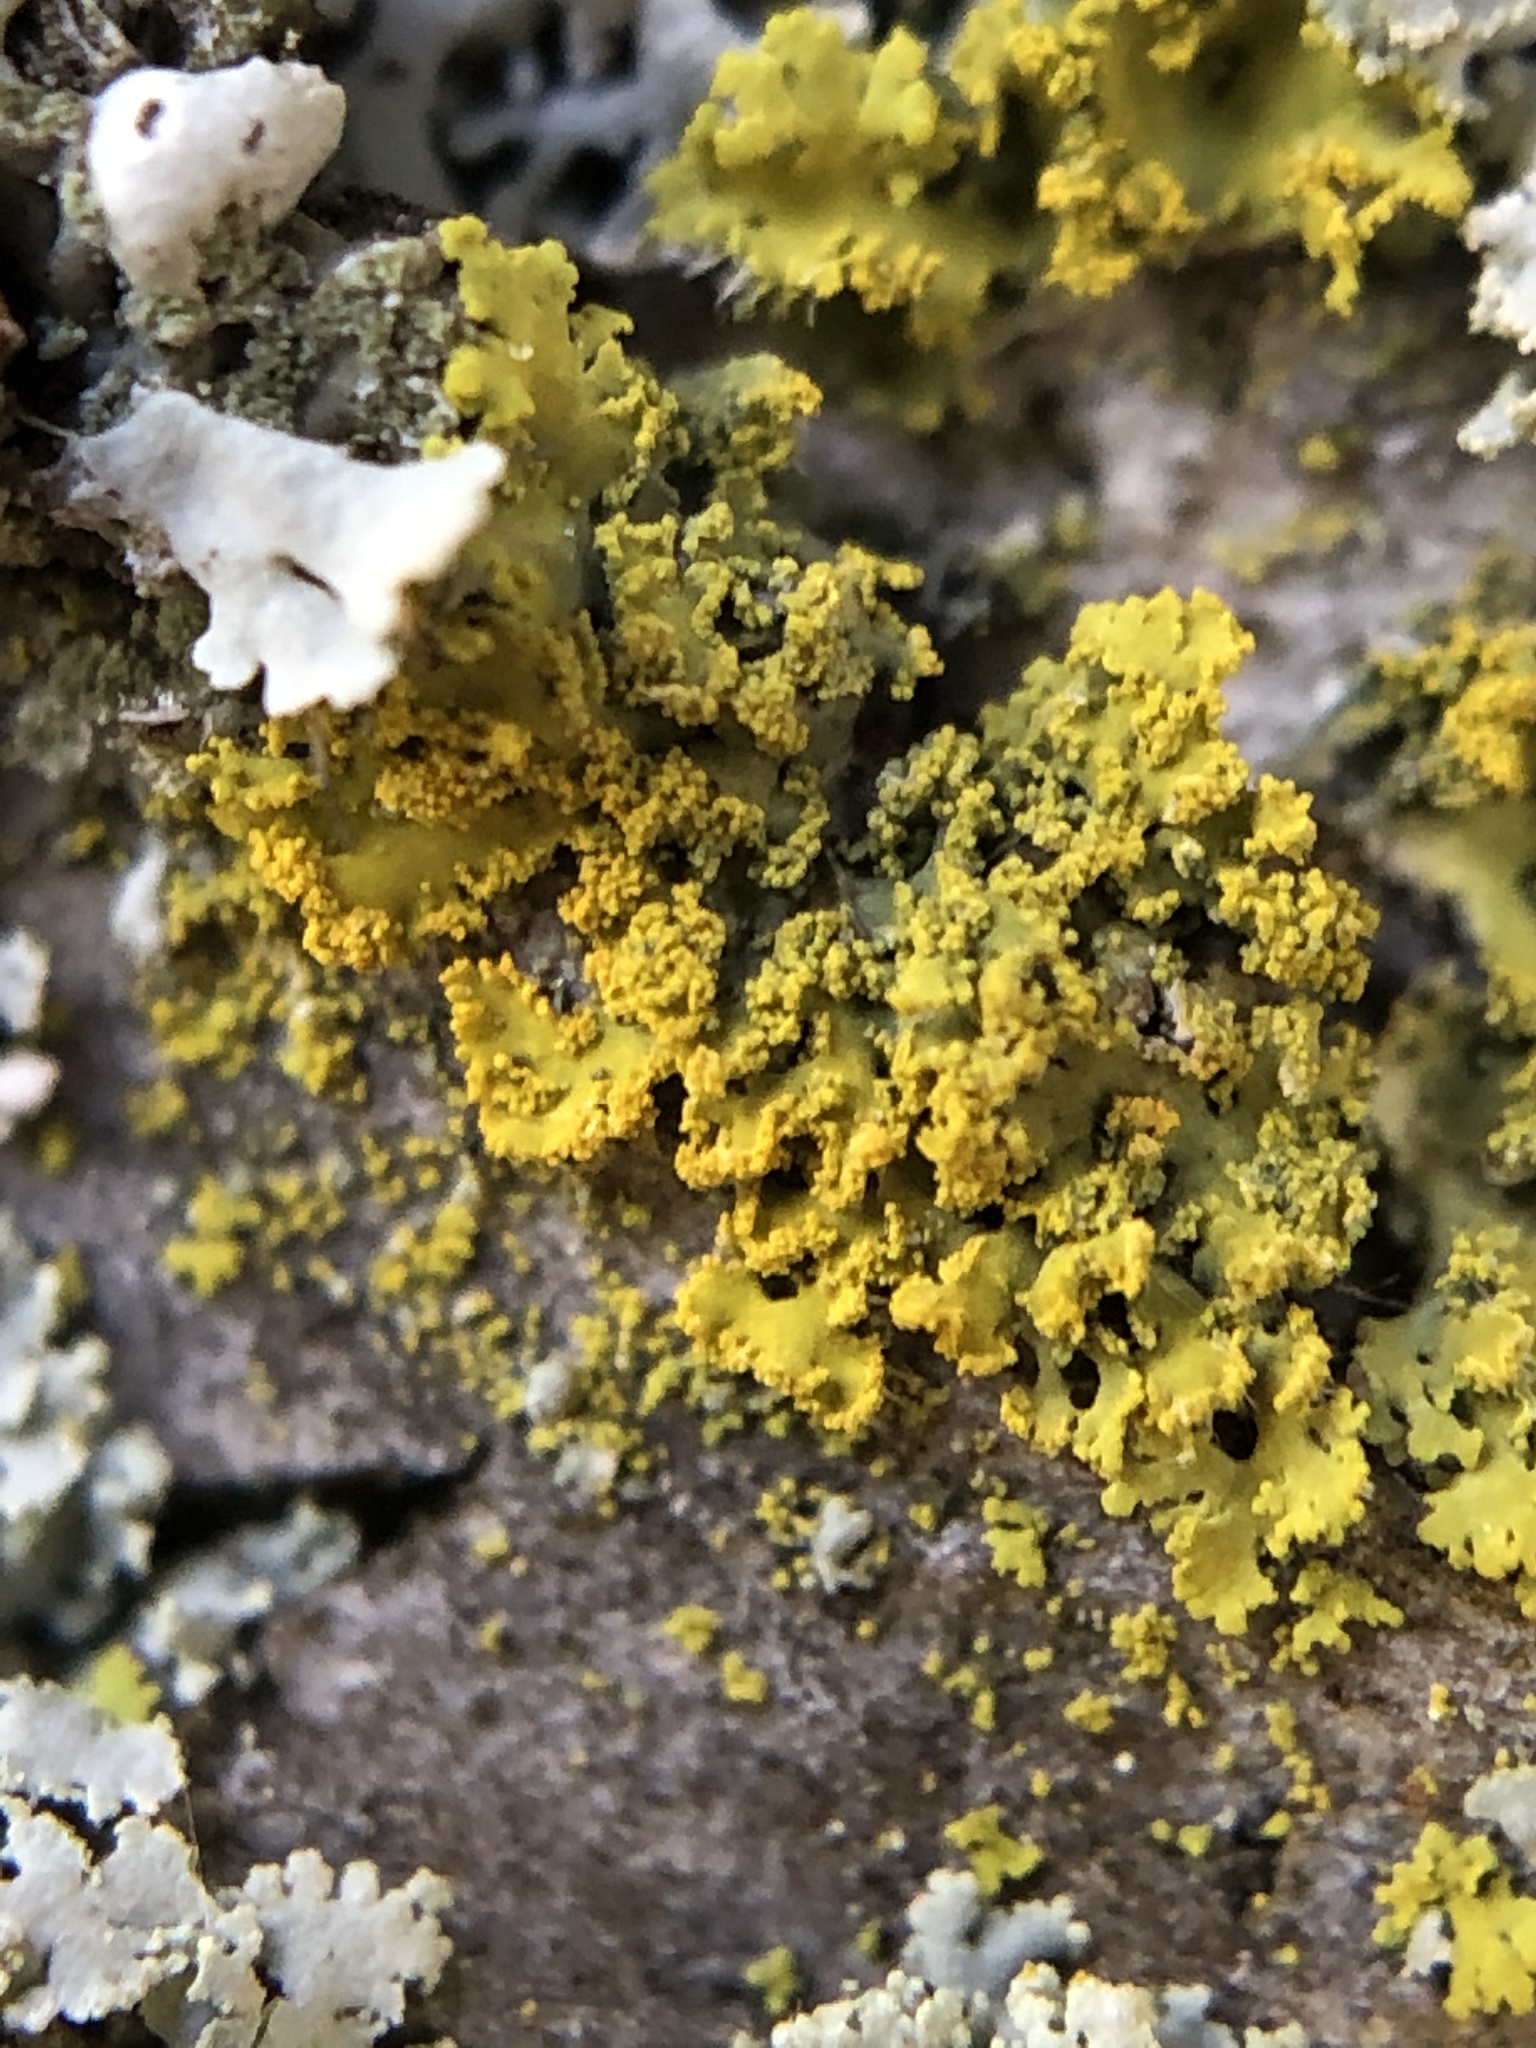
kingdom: Fungi
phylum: Ascomycota
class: Candelariomycetes
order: Candelariales
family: Candelariaceae
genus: Candelaria
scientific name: Candelaria concolor
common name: Candleflame lichen
